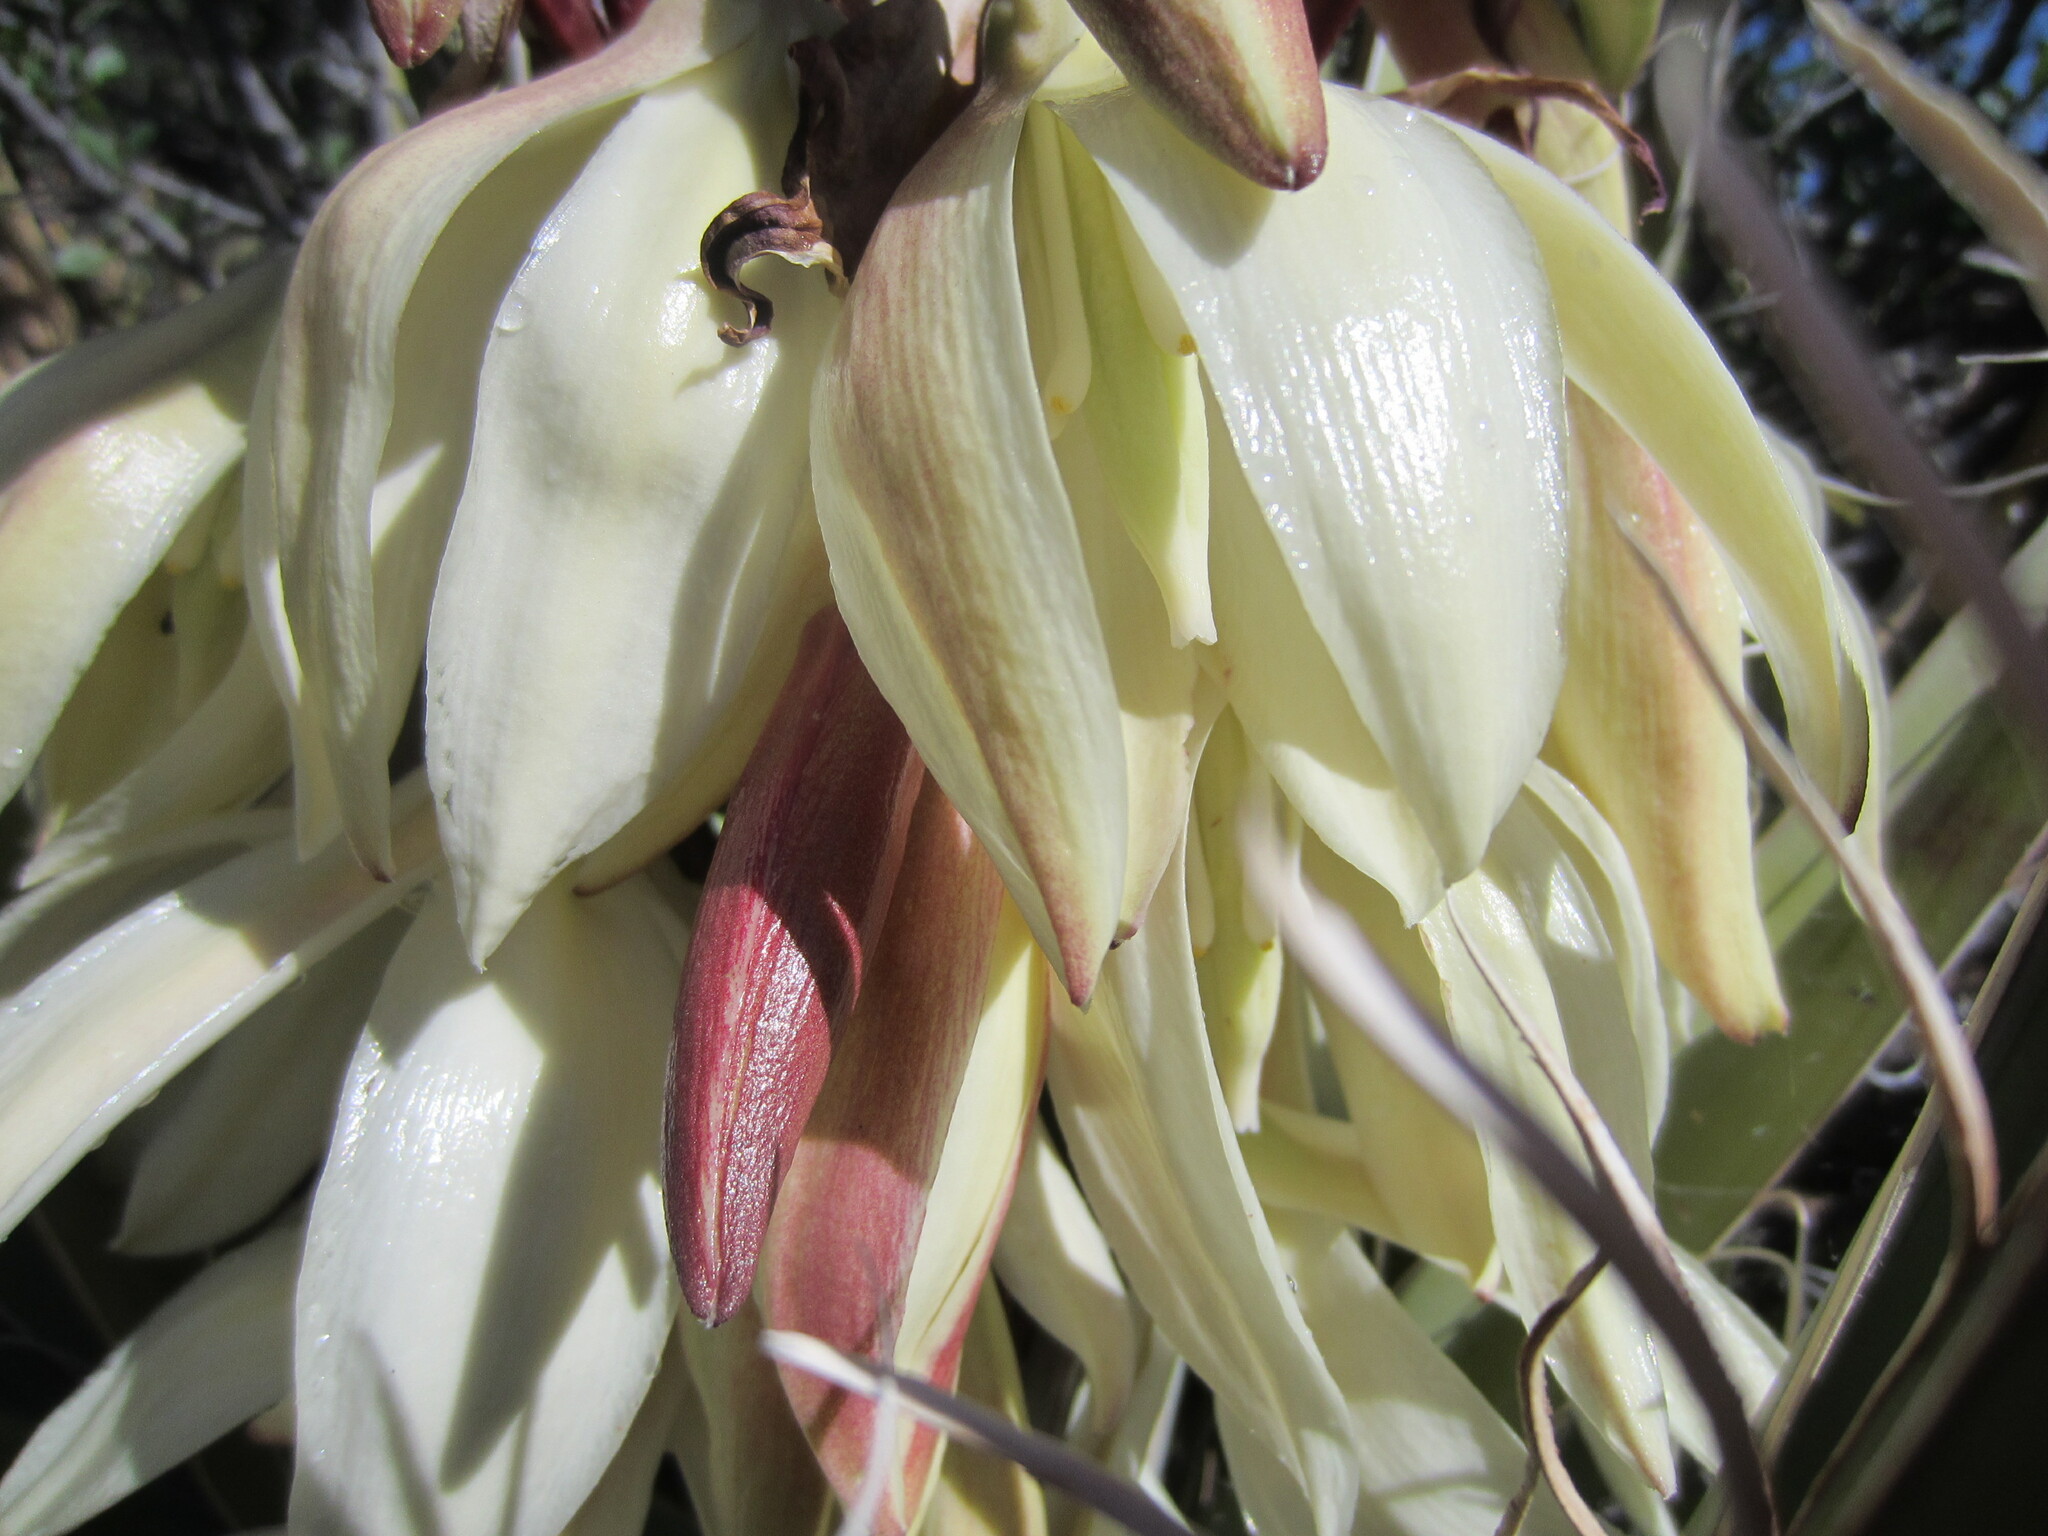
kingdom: Plantae
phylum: Tracheophyta
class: Liliopsida
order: Asparagales
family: Asparagaceae
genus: Yucca
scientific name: Yucca baccata
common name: Banana yucca
